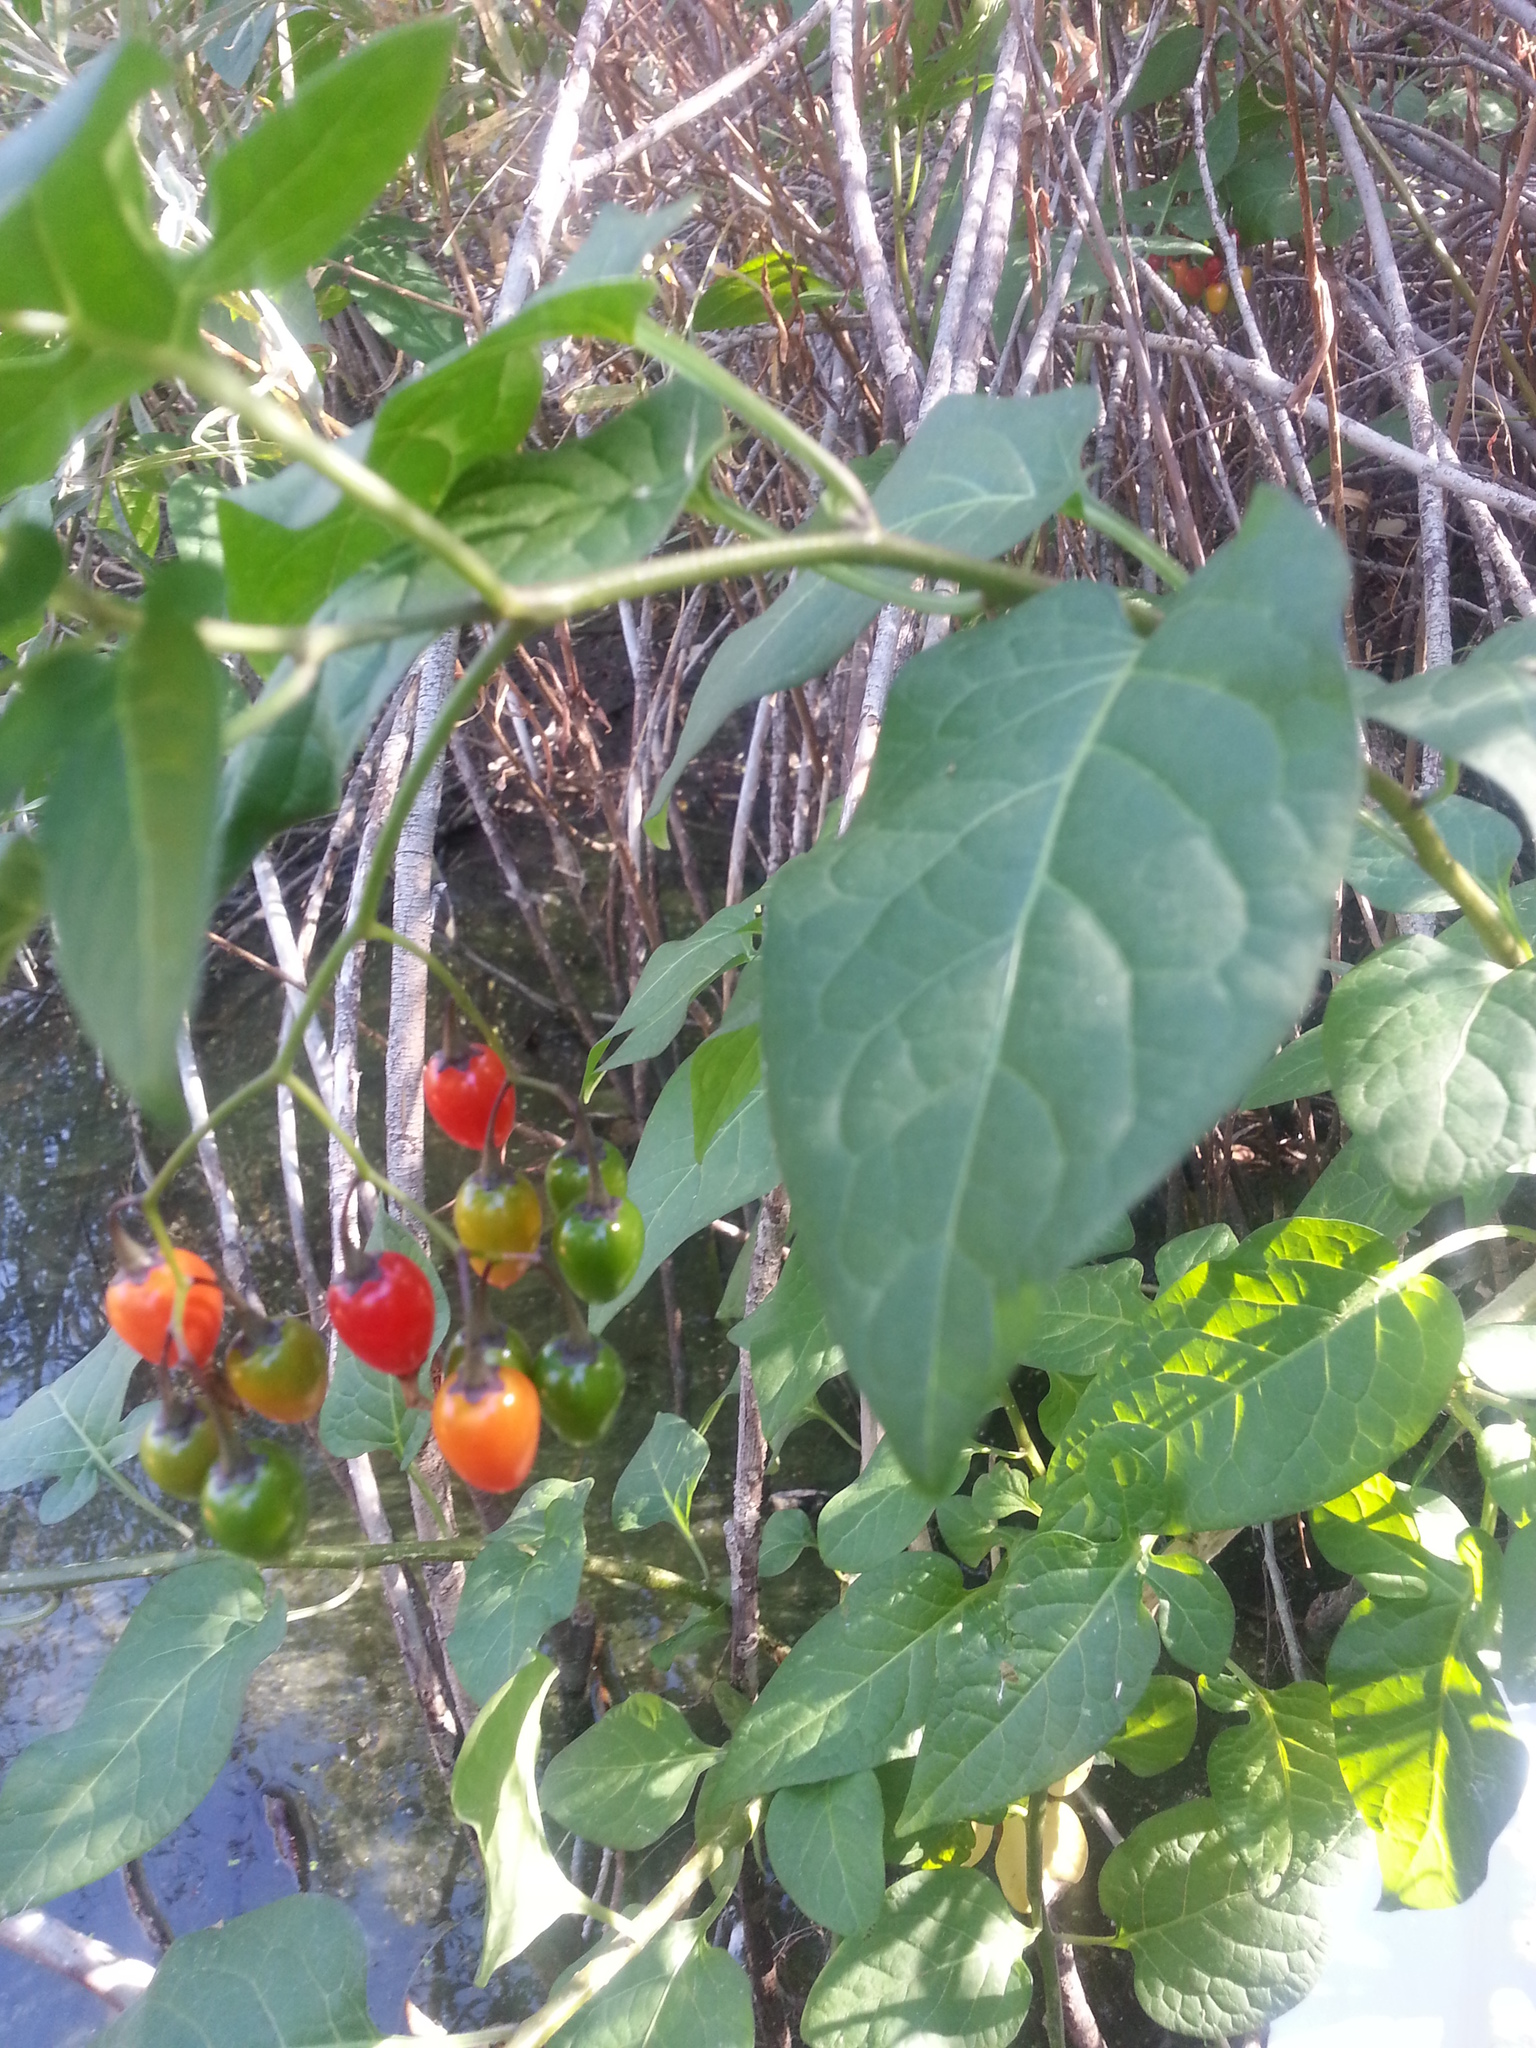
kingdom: Plantae
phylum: Tracheophyta
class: Magnoliopsida
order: Solanales
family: Solanaceae
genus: Solanum
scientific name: Solanum dulcamara
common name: Climbing nightshade
